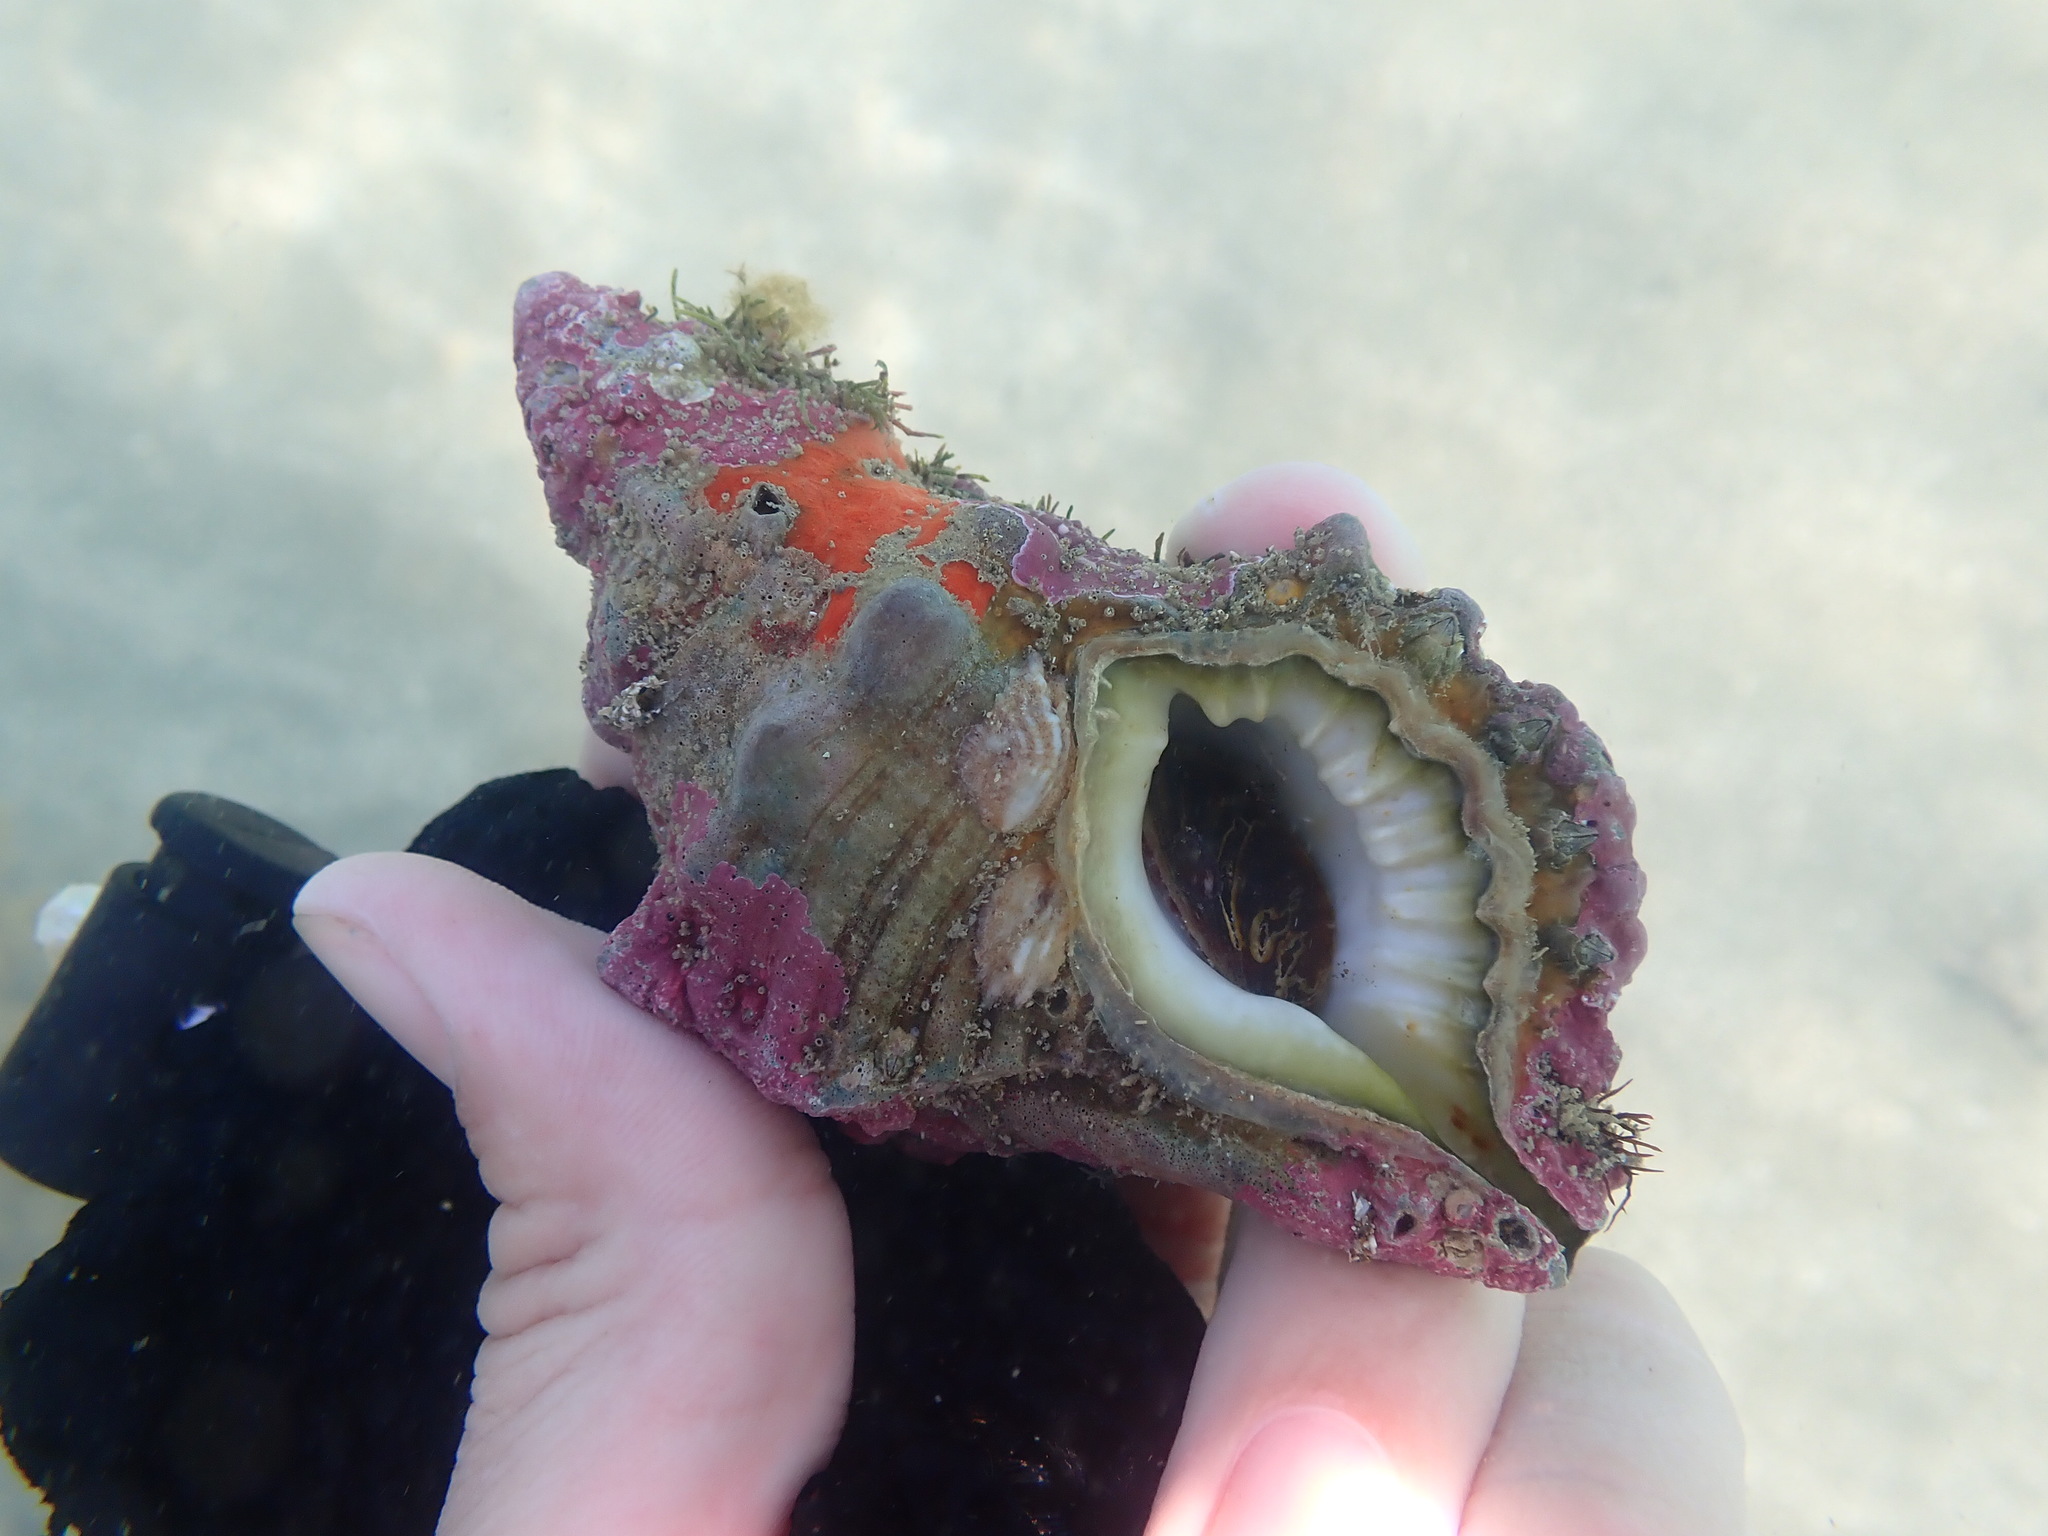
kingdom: Animalia
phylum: Mollusca
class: Gastropoda
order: Littorinimorpha
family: Cymatiidae
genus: Cabestana
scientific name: Cabestana spengleri
